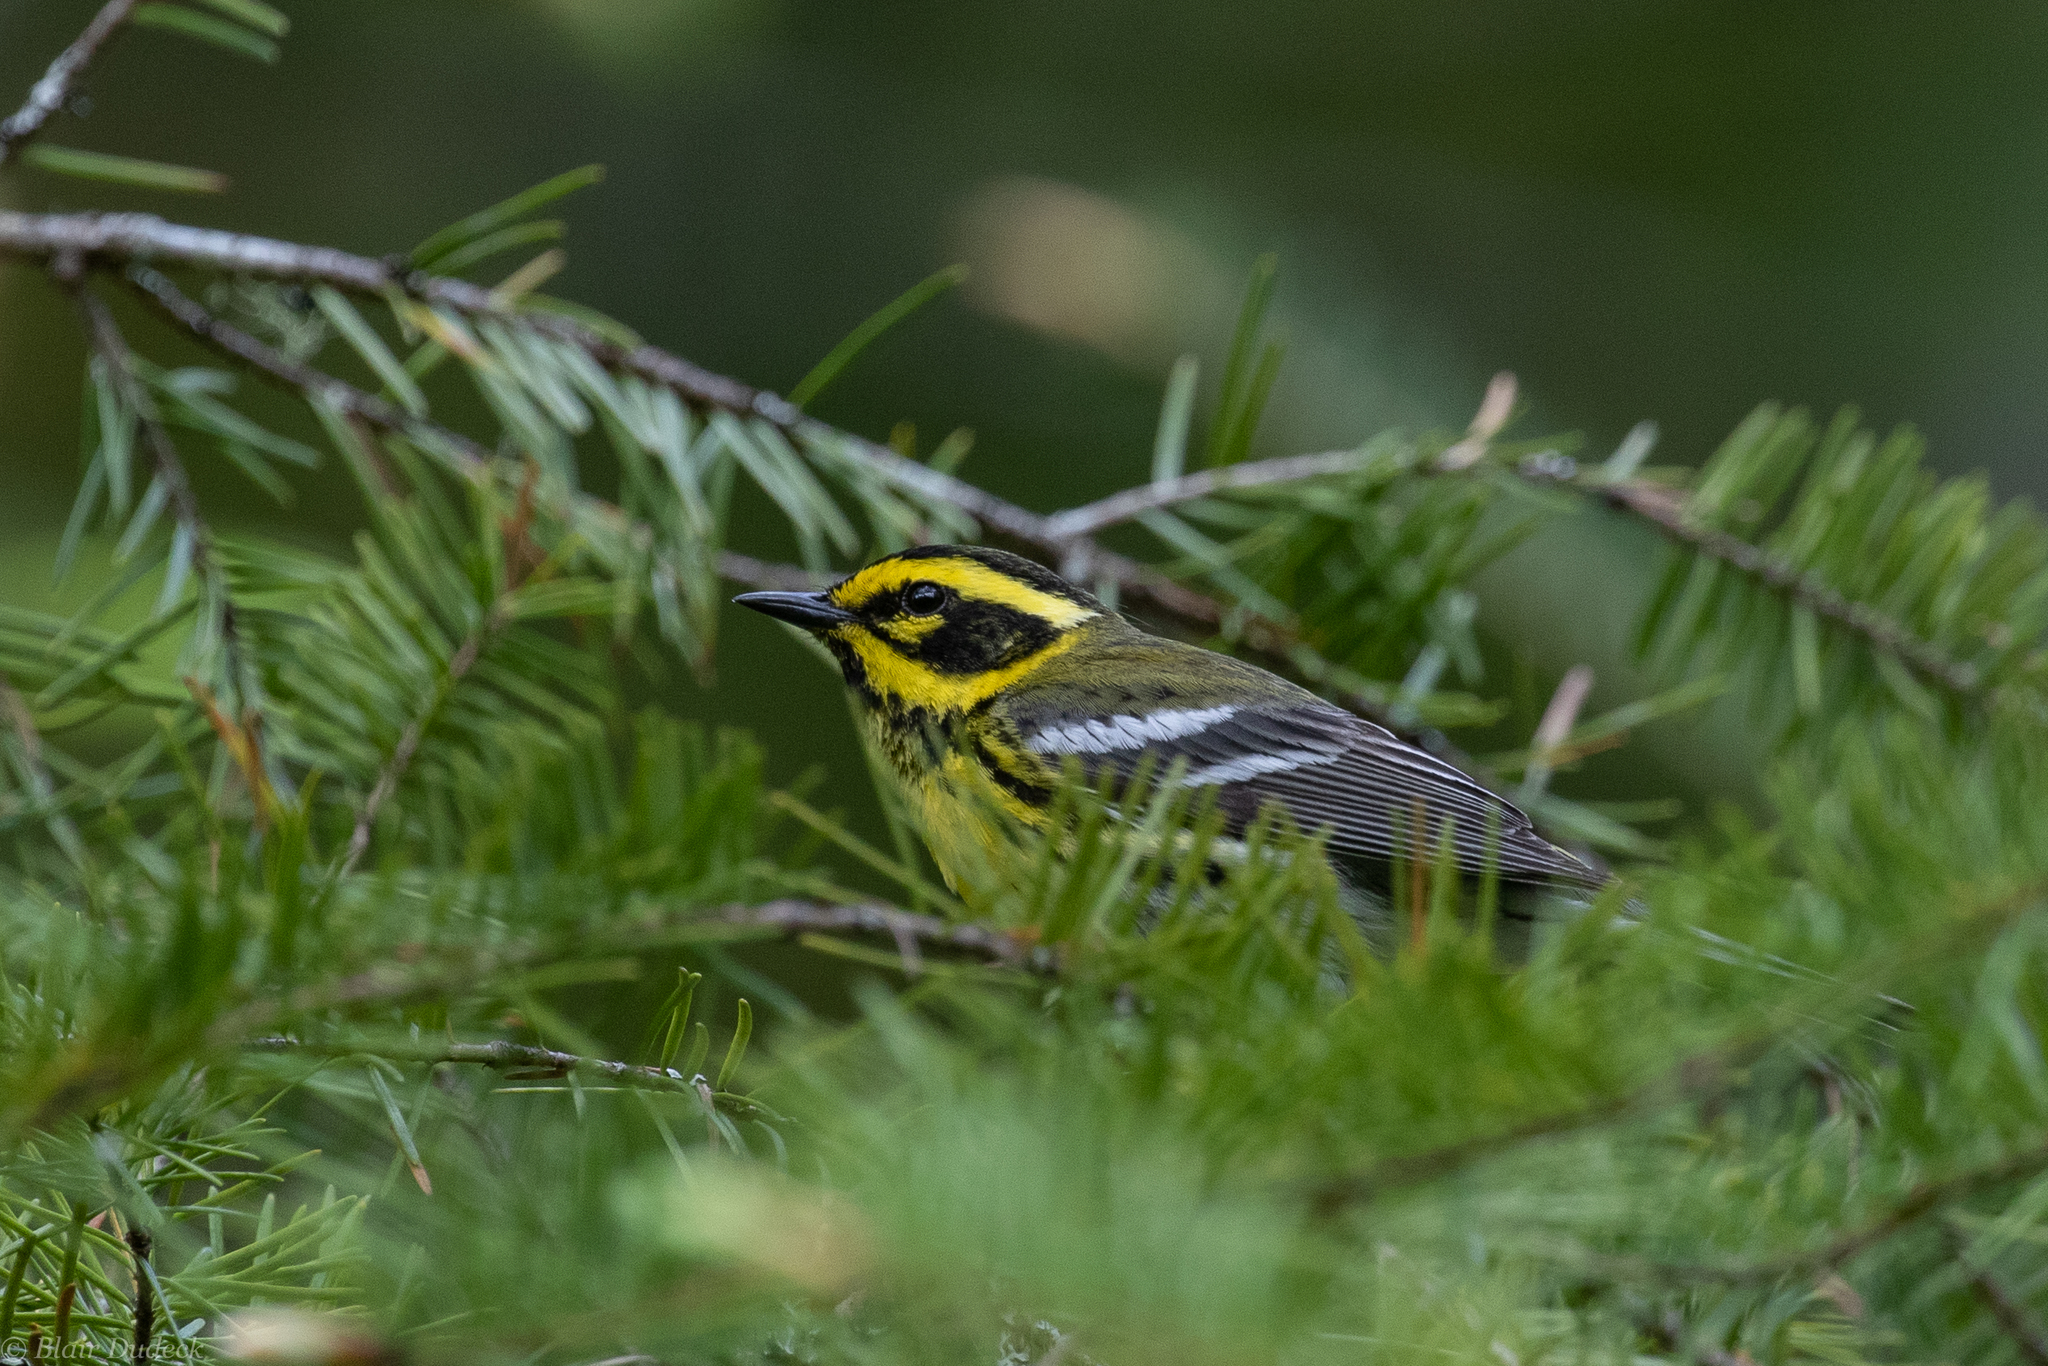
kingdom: Animalia
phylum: Chordata
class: Aves
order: Passeriformes
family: Parulidae
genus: Setophaga
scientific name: Setophaga townsendi
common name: Townsend's warbler
